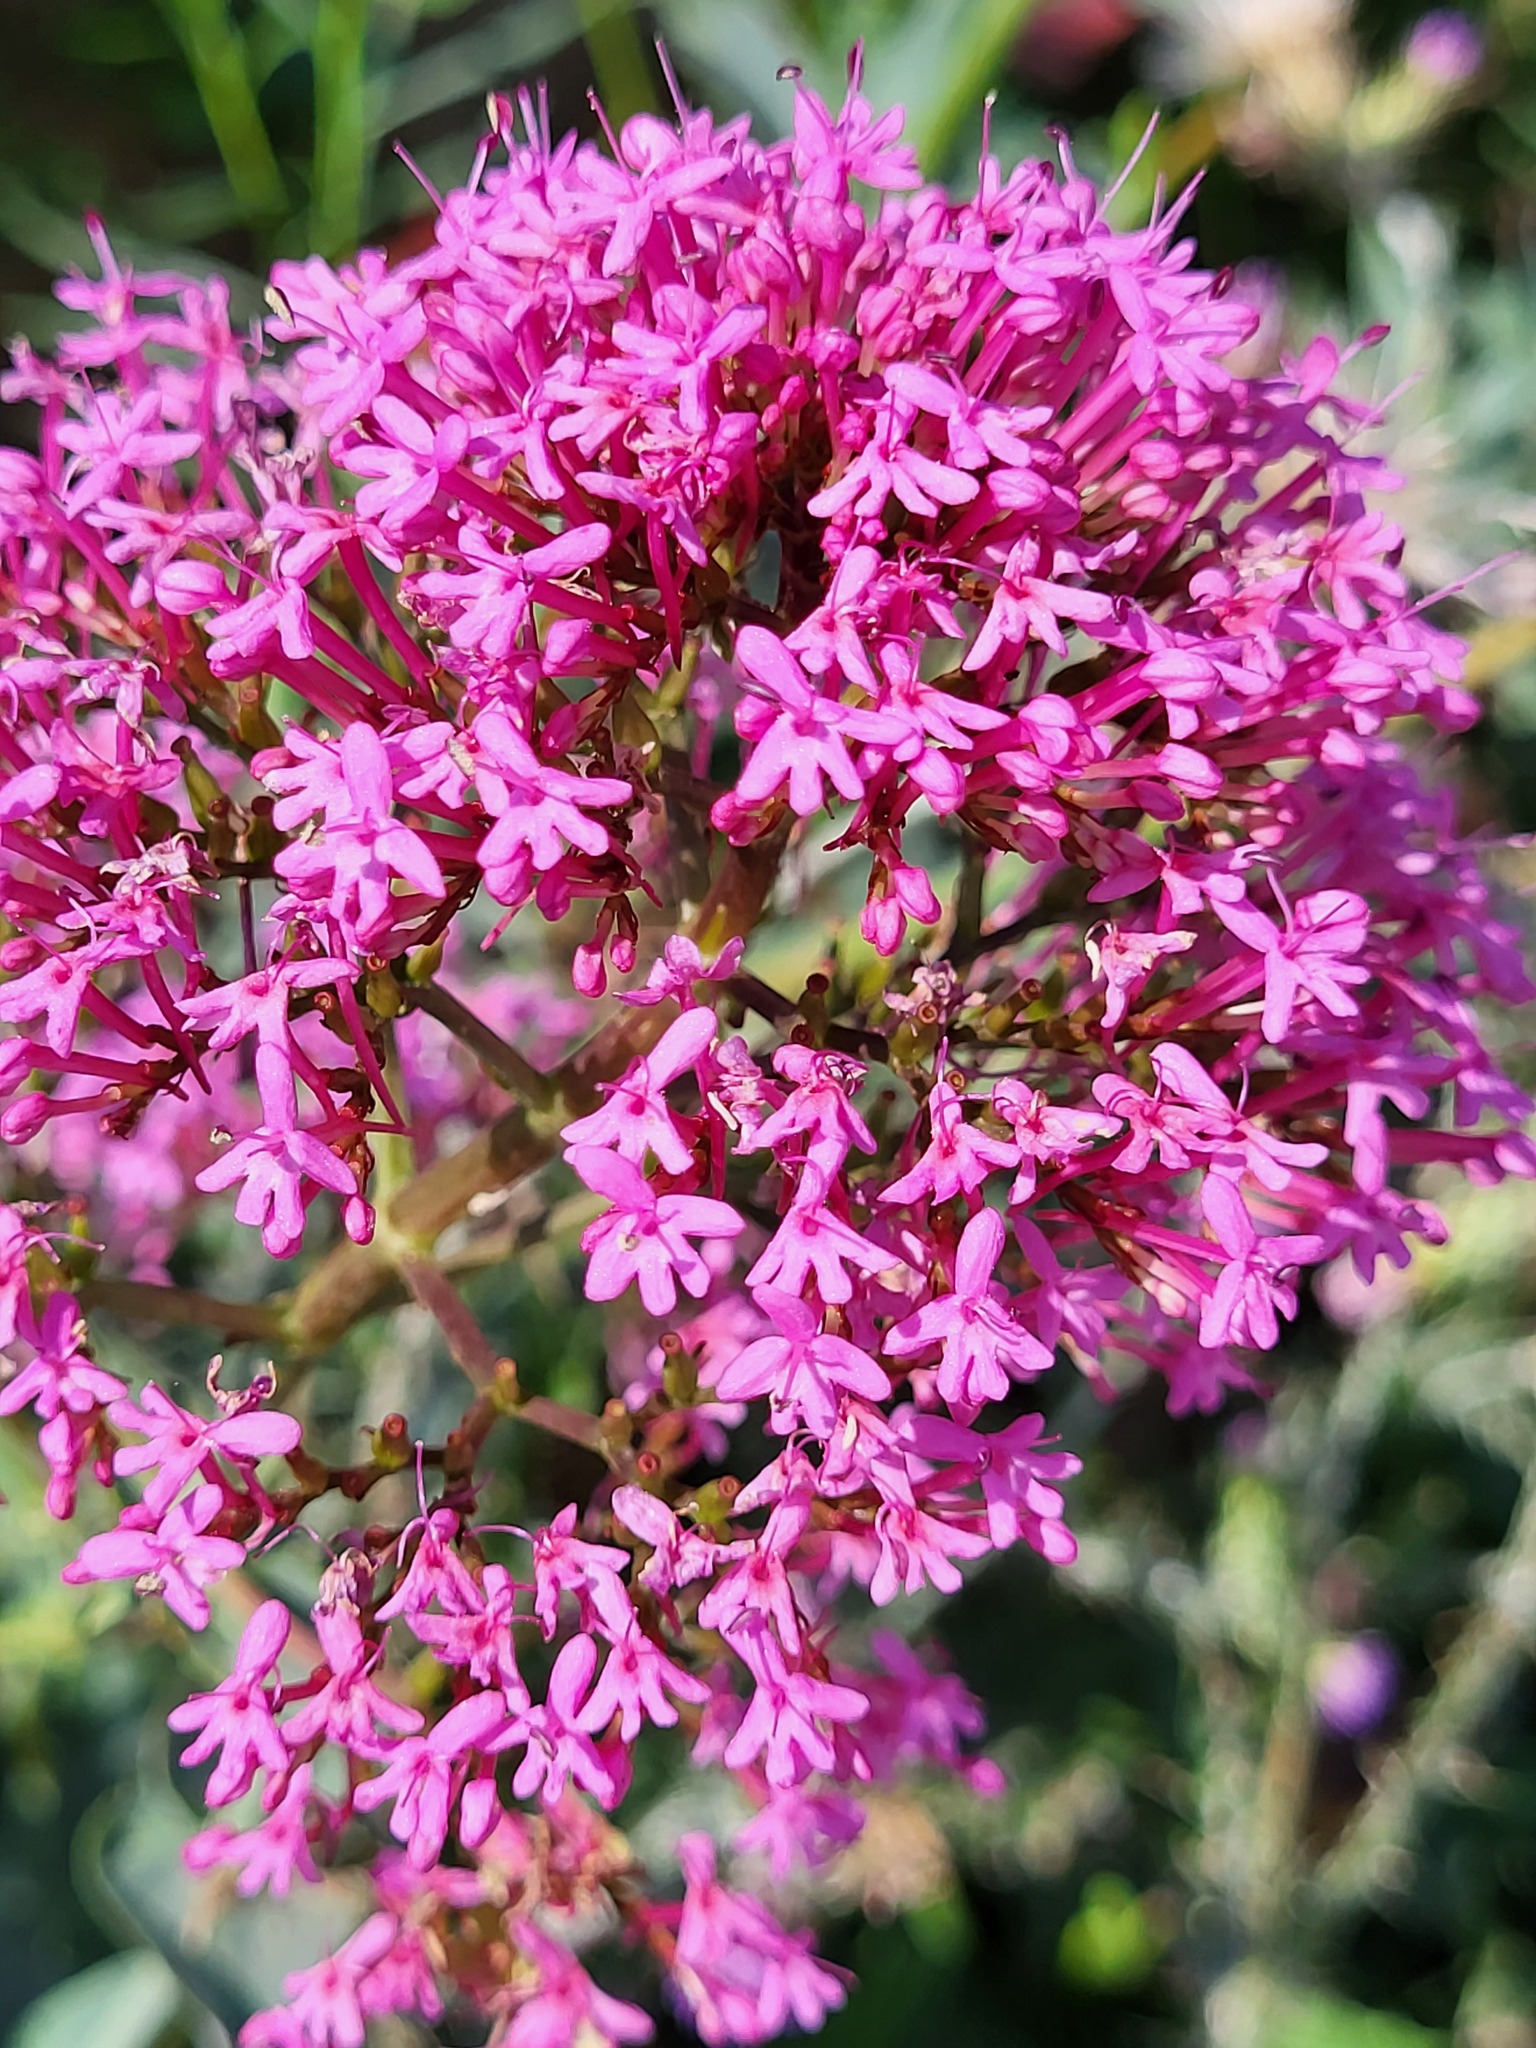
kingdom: Plantae
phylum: Tracheophyta
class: Magnoliopsida
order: Dipsacales
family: Caprifoliaceae
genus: Centranthus
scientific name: Centranthus ruber
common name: Red valerian
